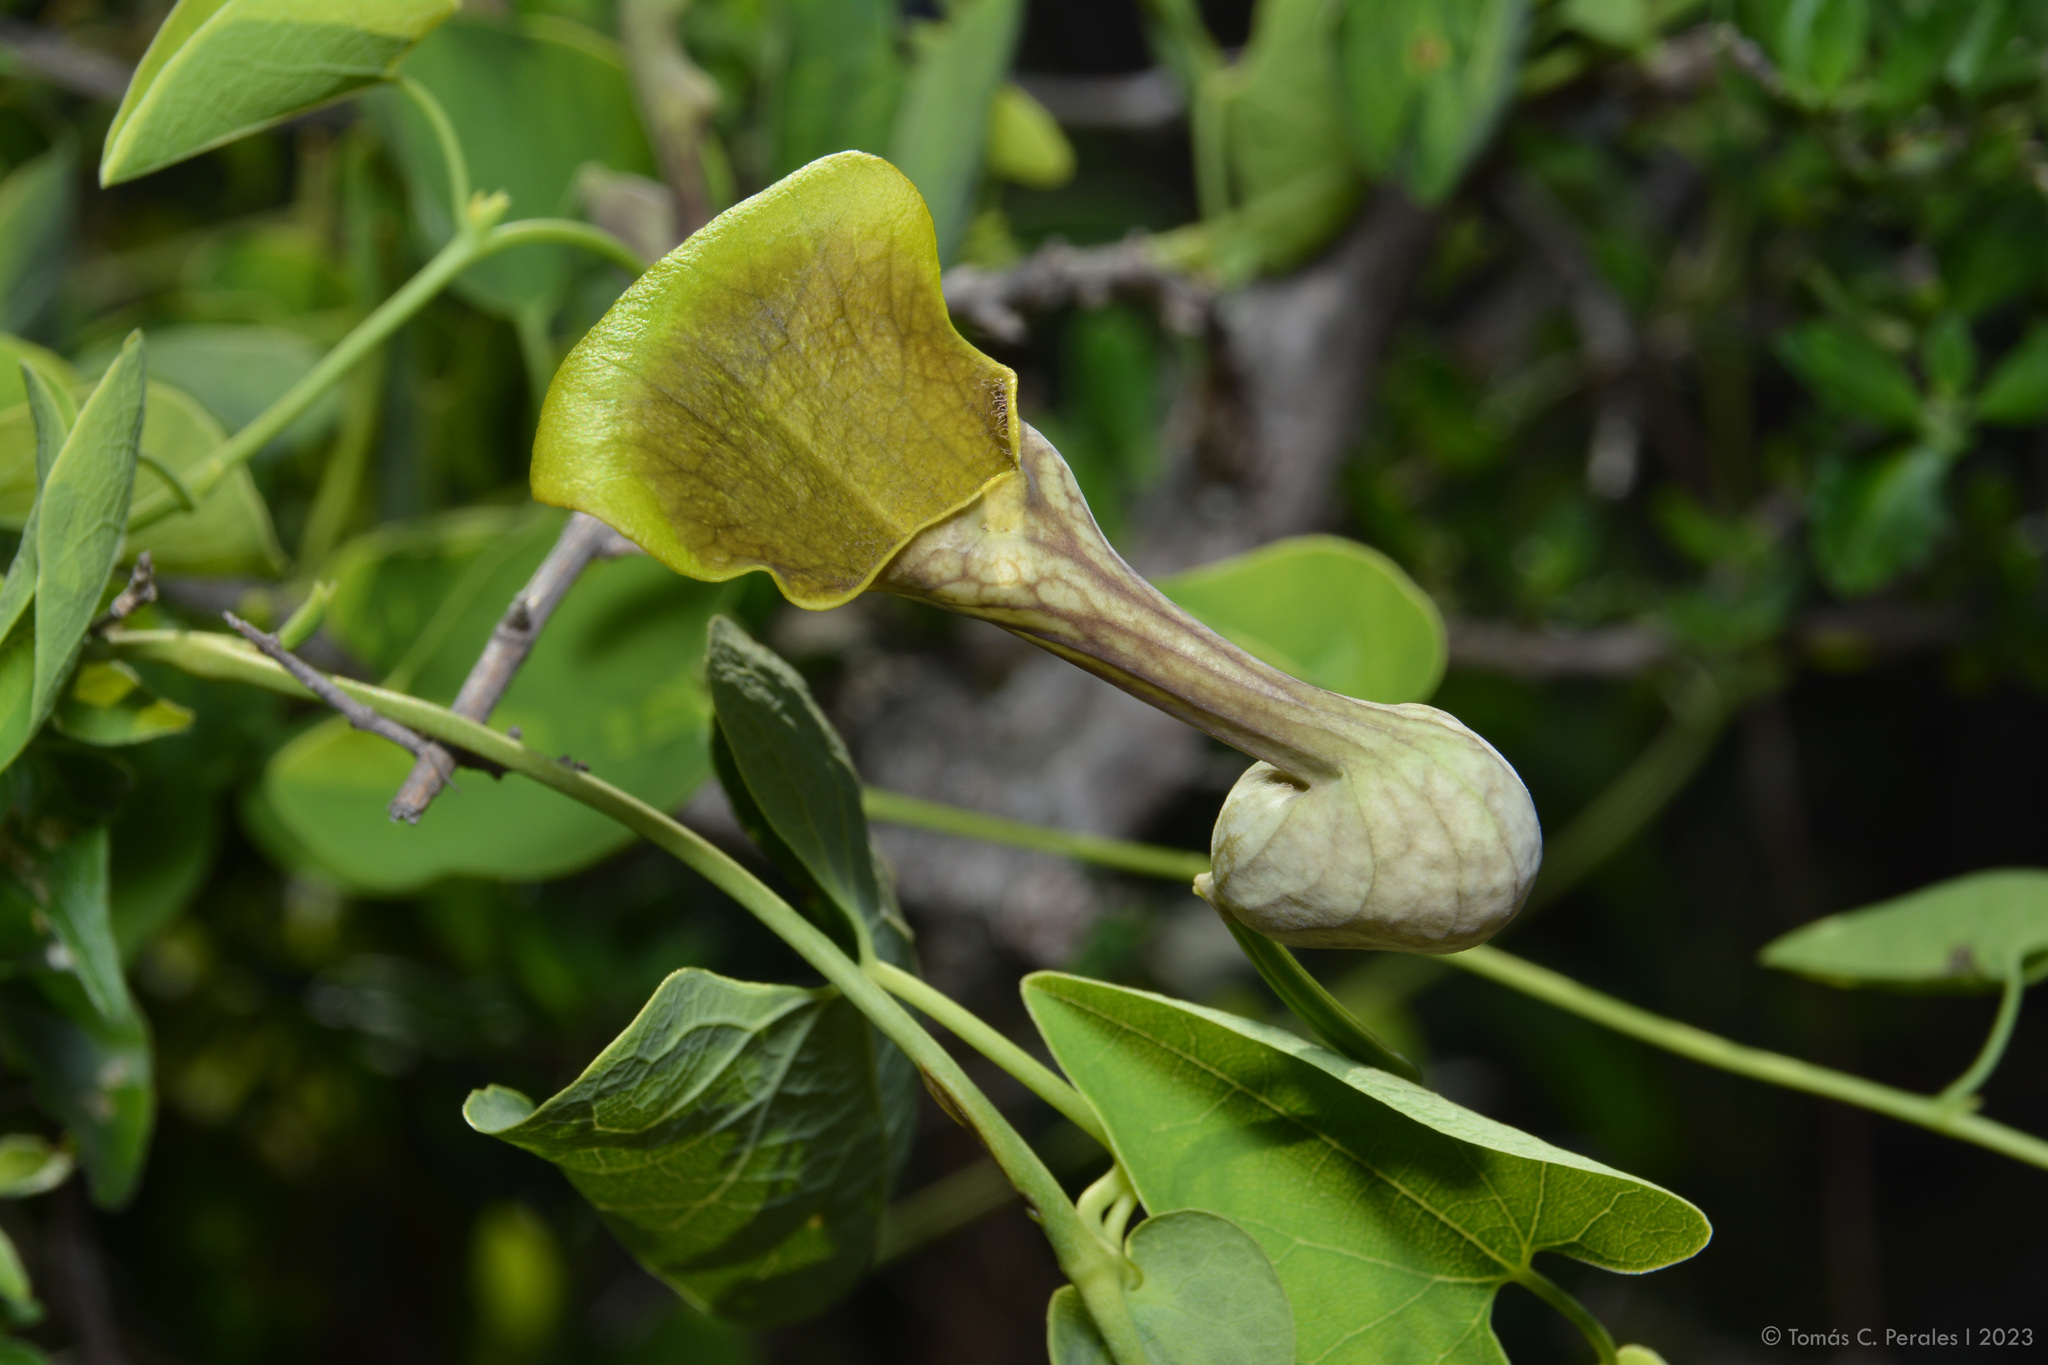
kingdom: Plantae
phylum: Tracheophyta
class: Magnoliopsida
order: Piperales
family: Aristolochiaceae
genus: Aristolochia
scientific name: Aristolochia argentina
